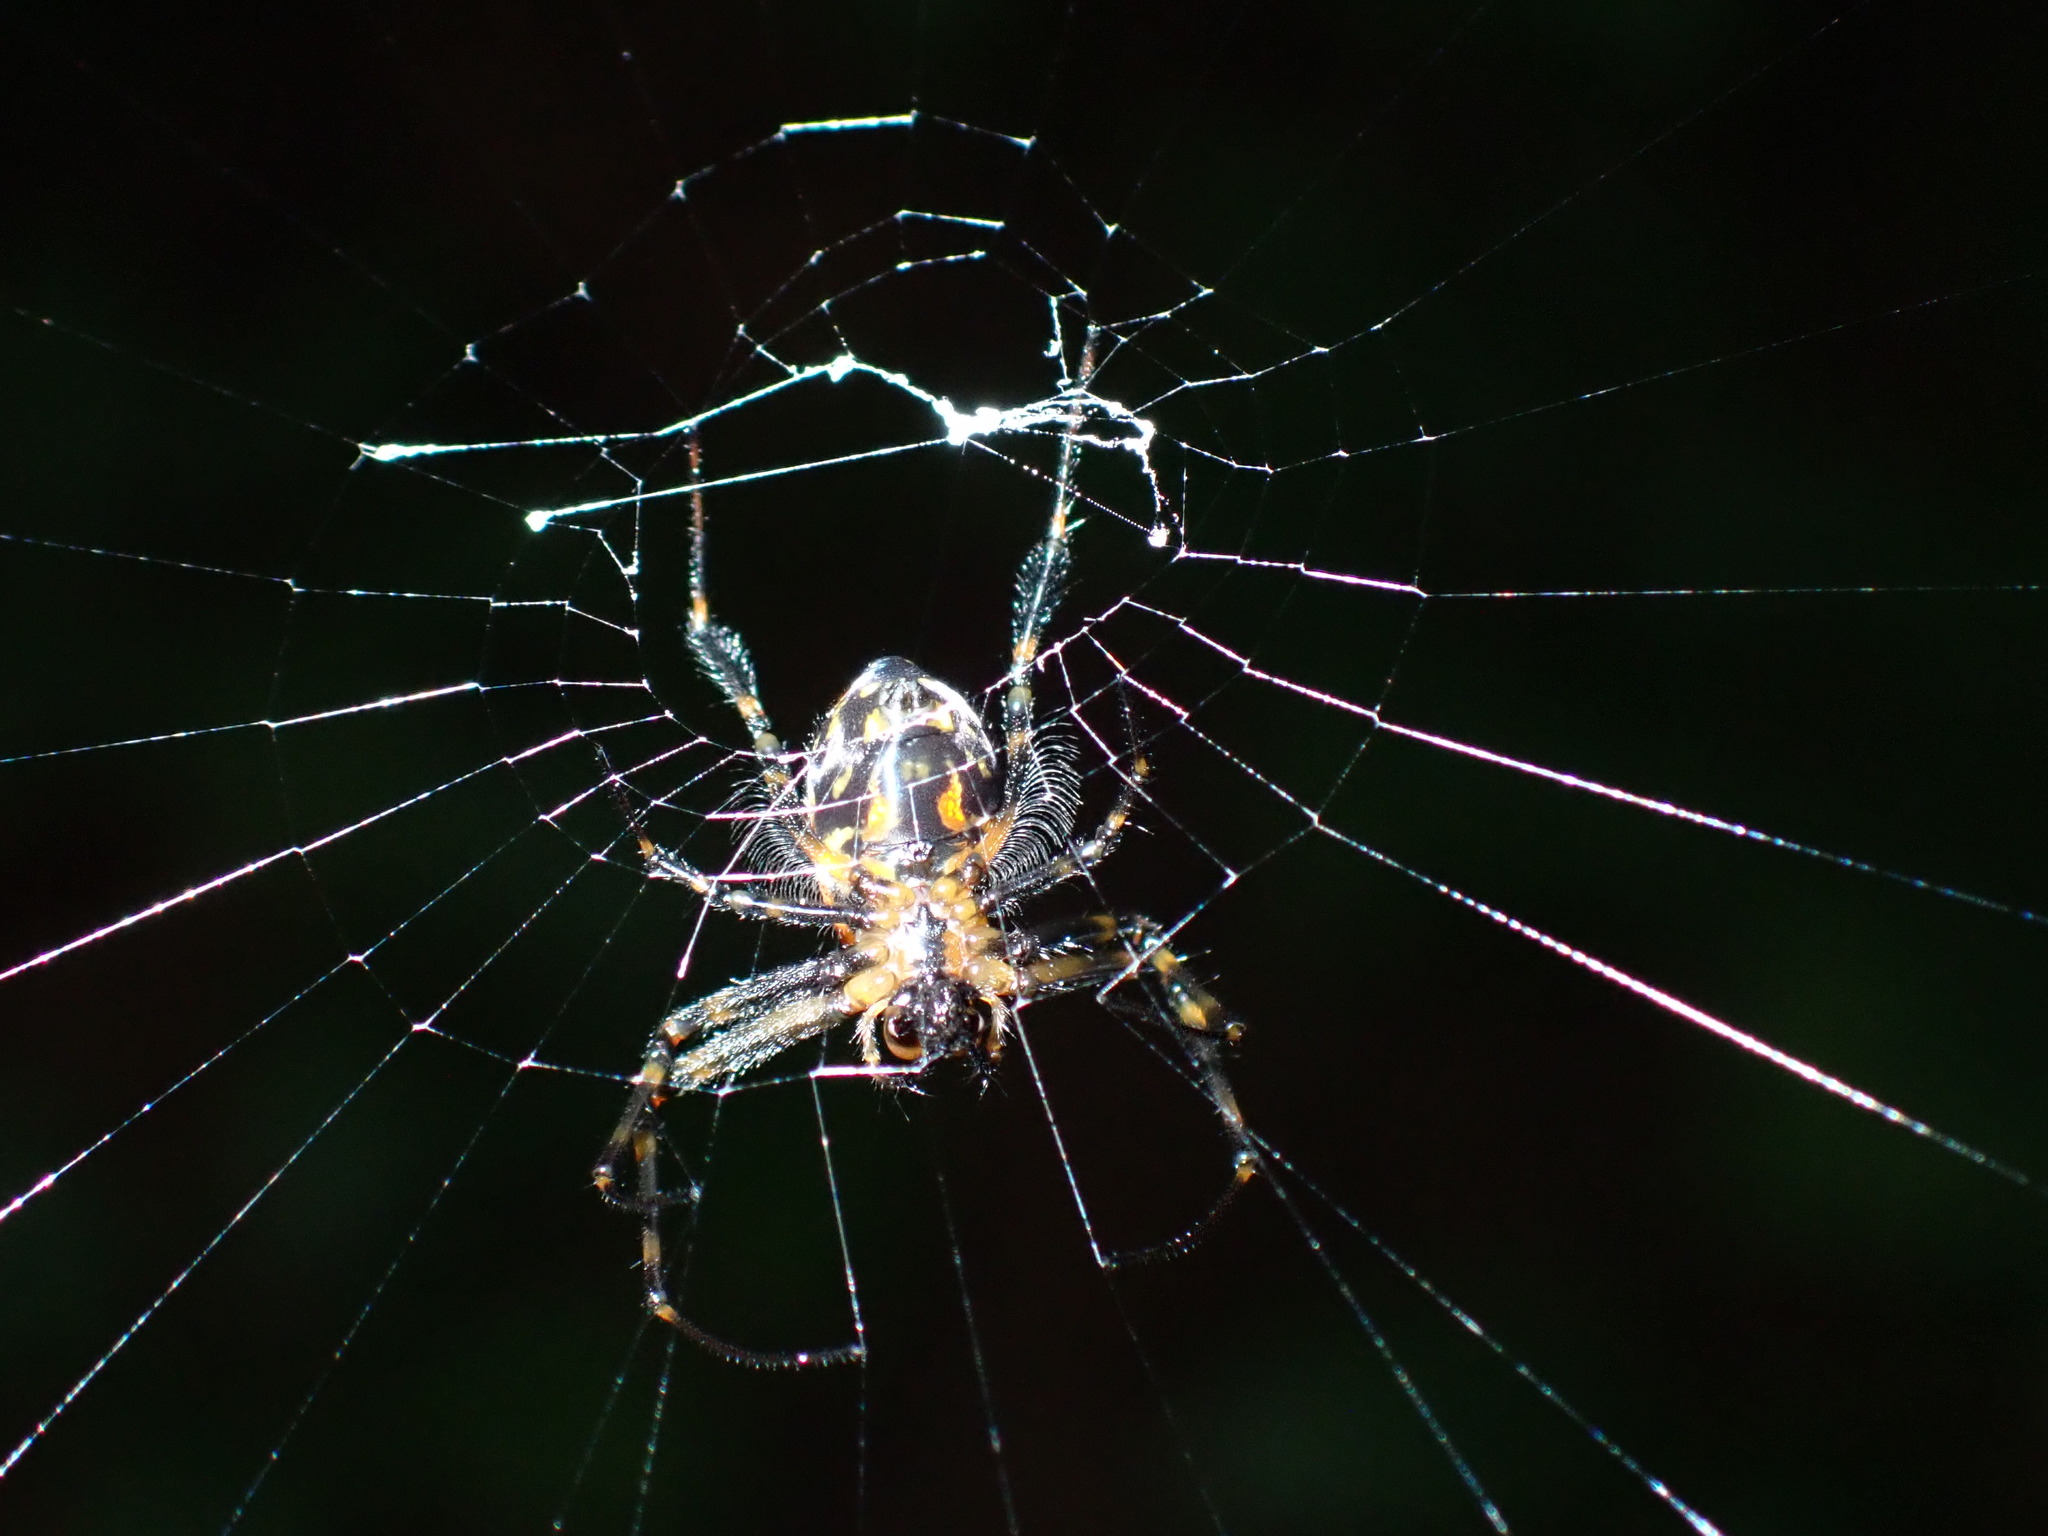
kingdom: Animalia
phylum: Arthropoda
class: Arachnida
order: Araneae
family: Tetragnathidae
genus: Leucauge
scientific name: Leucauge fastigata
